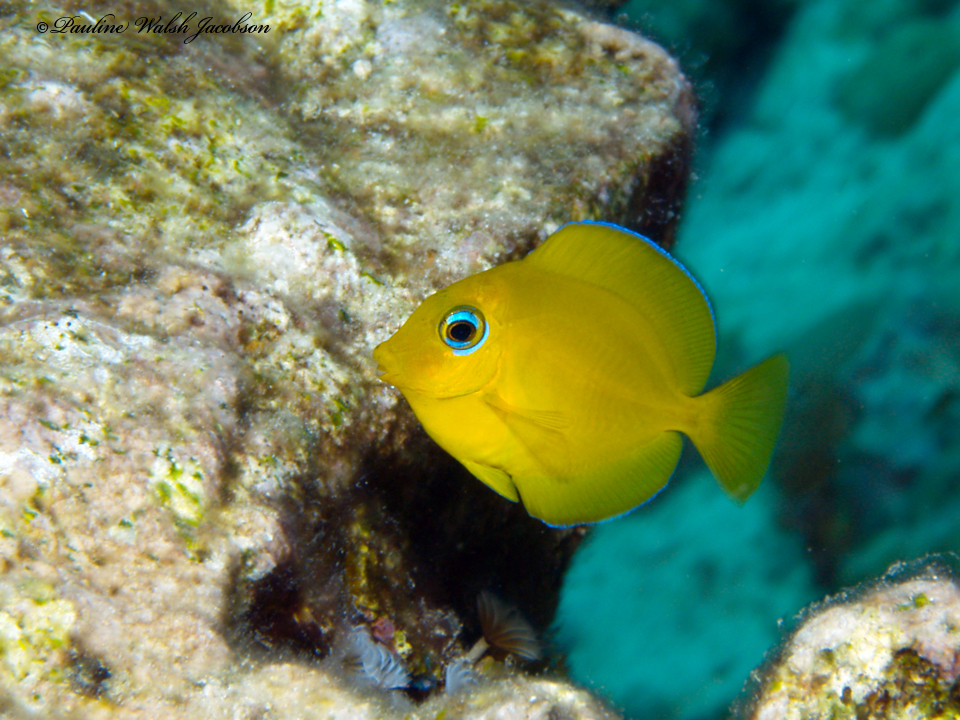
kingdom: Animalia
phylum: Chordata
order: Perciformes
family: Acanthuridae
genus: Acanthurus
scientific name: Acanthurus coeruleus
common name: Blue tang
